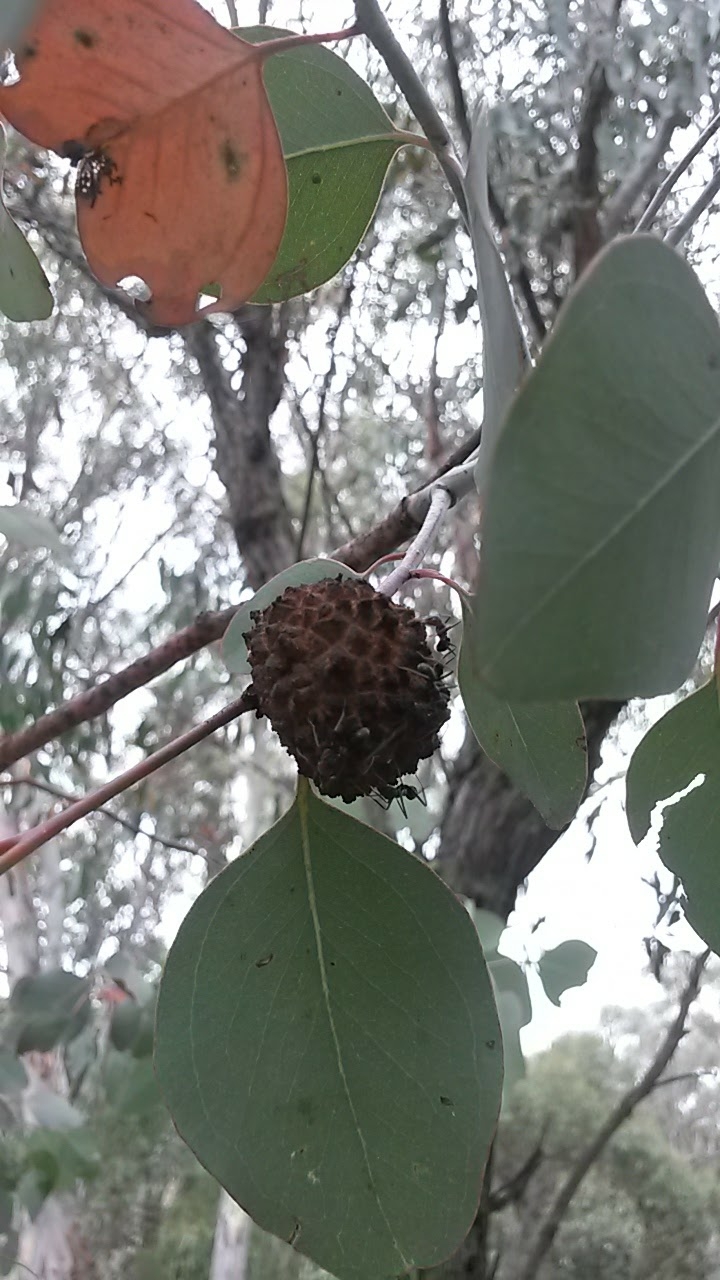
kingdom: Animalia
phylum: Arthropoda
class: Insecta
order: Hemiptera
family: Eriococcidae
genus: Apiomorpha
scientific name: Apiomorpha strombylosa
